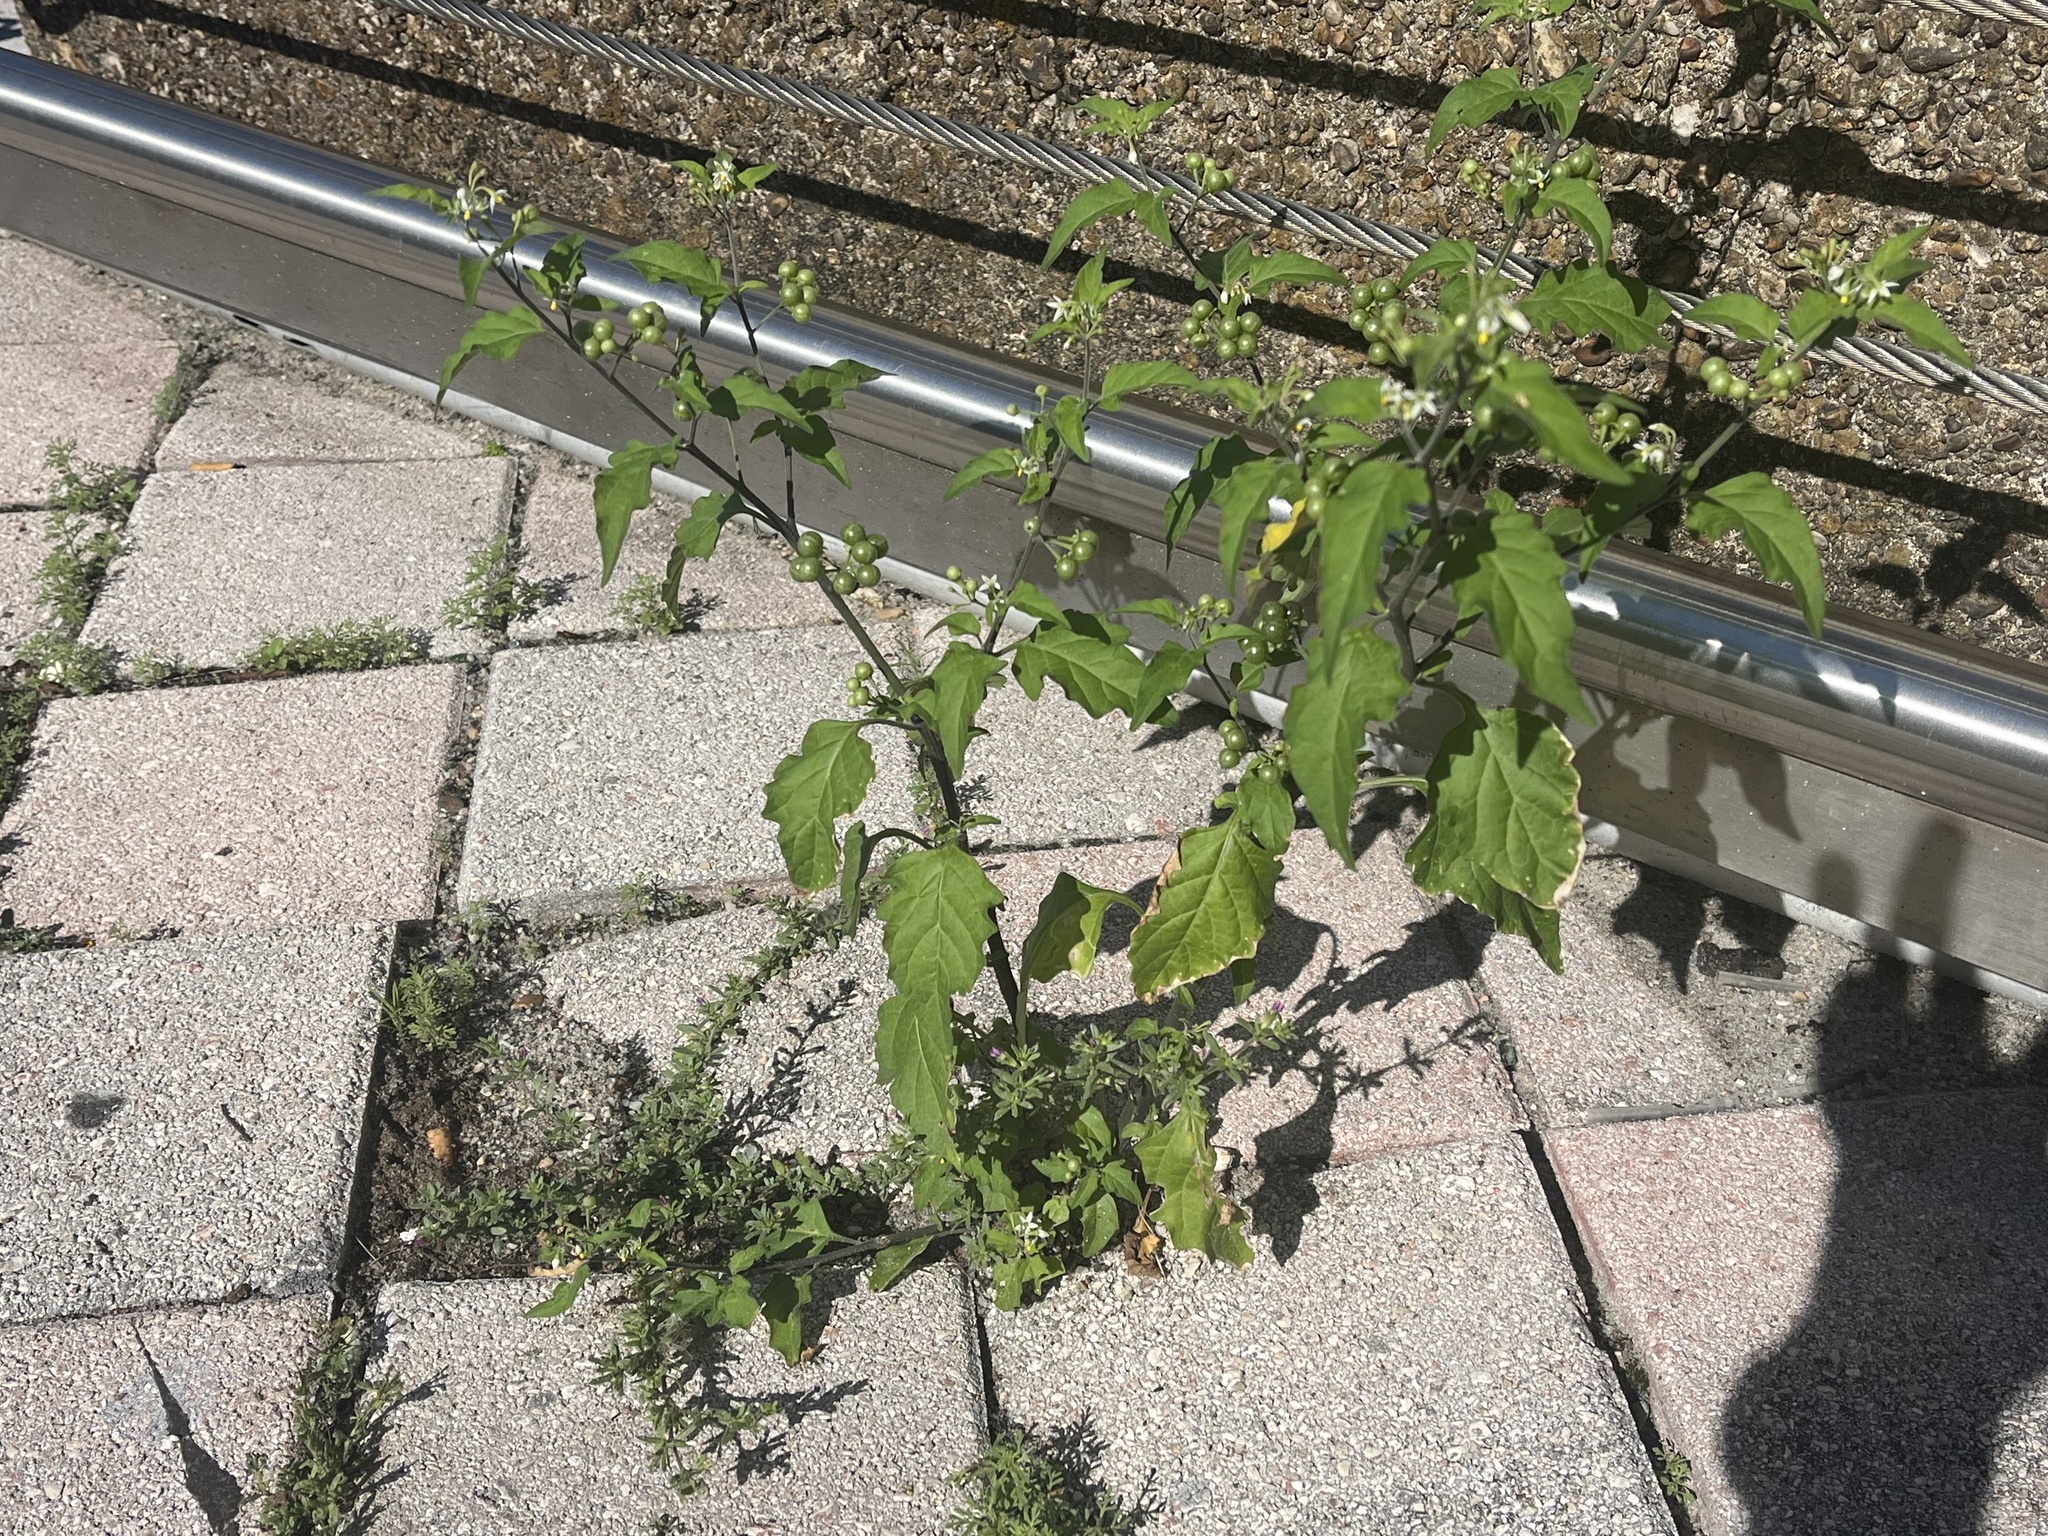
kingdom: Plantae
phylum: Tracheophyta
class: Magnoliopsida
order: Solanales
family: Solanaceae
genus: Solanum
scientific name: Solanum americanum
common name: American black nightshade
